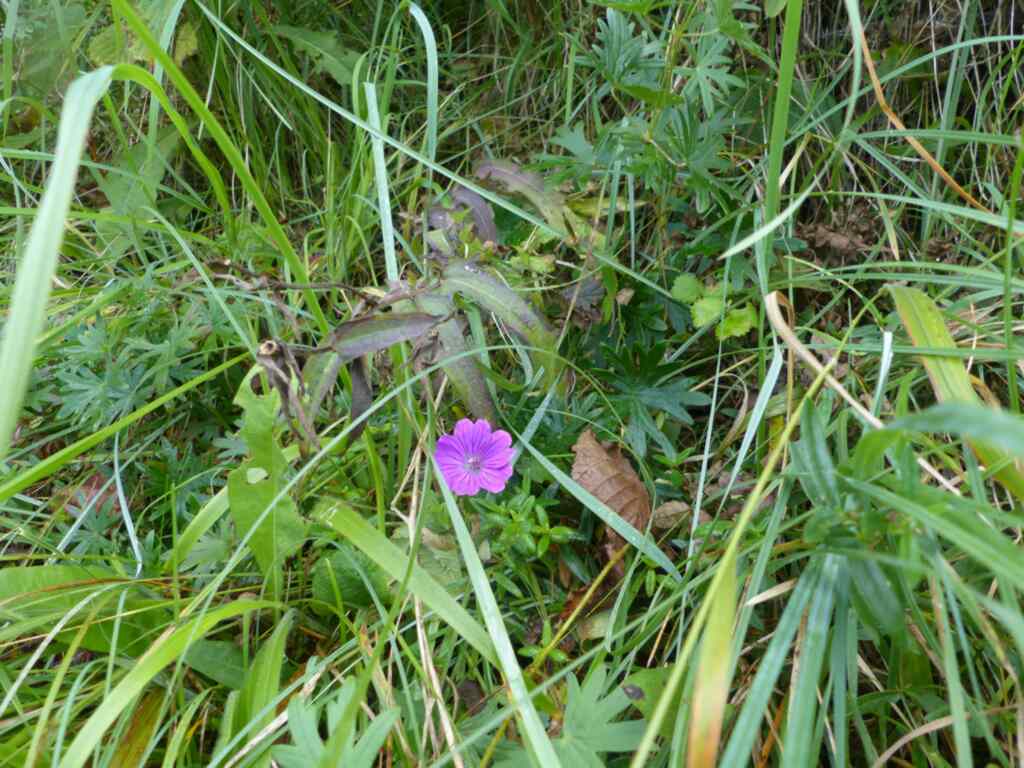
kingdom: Plantae
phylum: Tracheophyta
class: Magnoliopsida
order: Geraniales
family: Geraniaceae
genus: Geranium
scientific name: Geranium sanguineum
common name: Bloody crane's-bill
